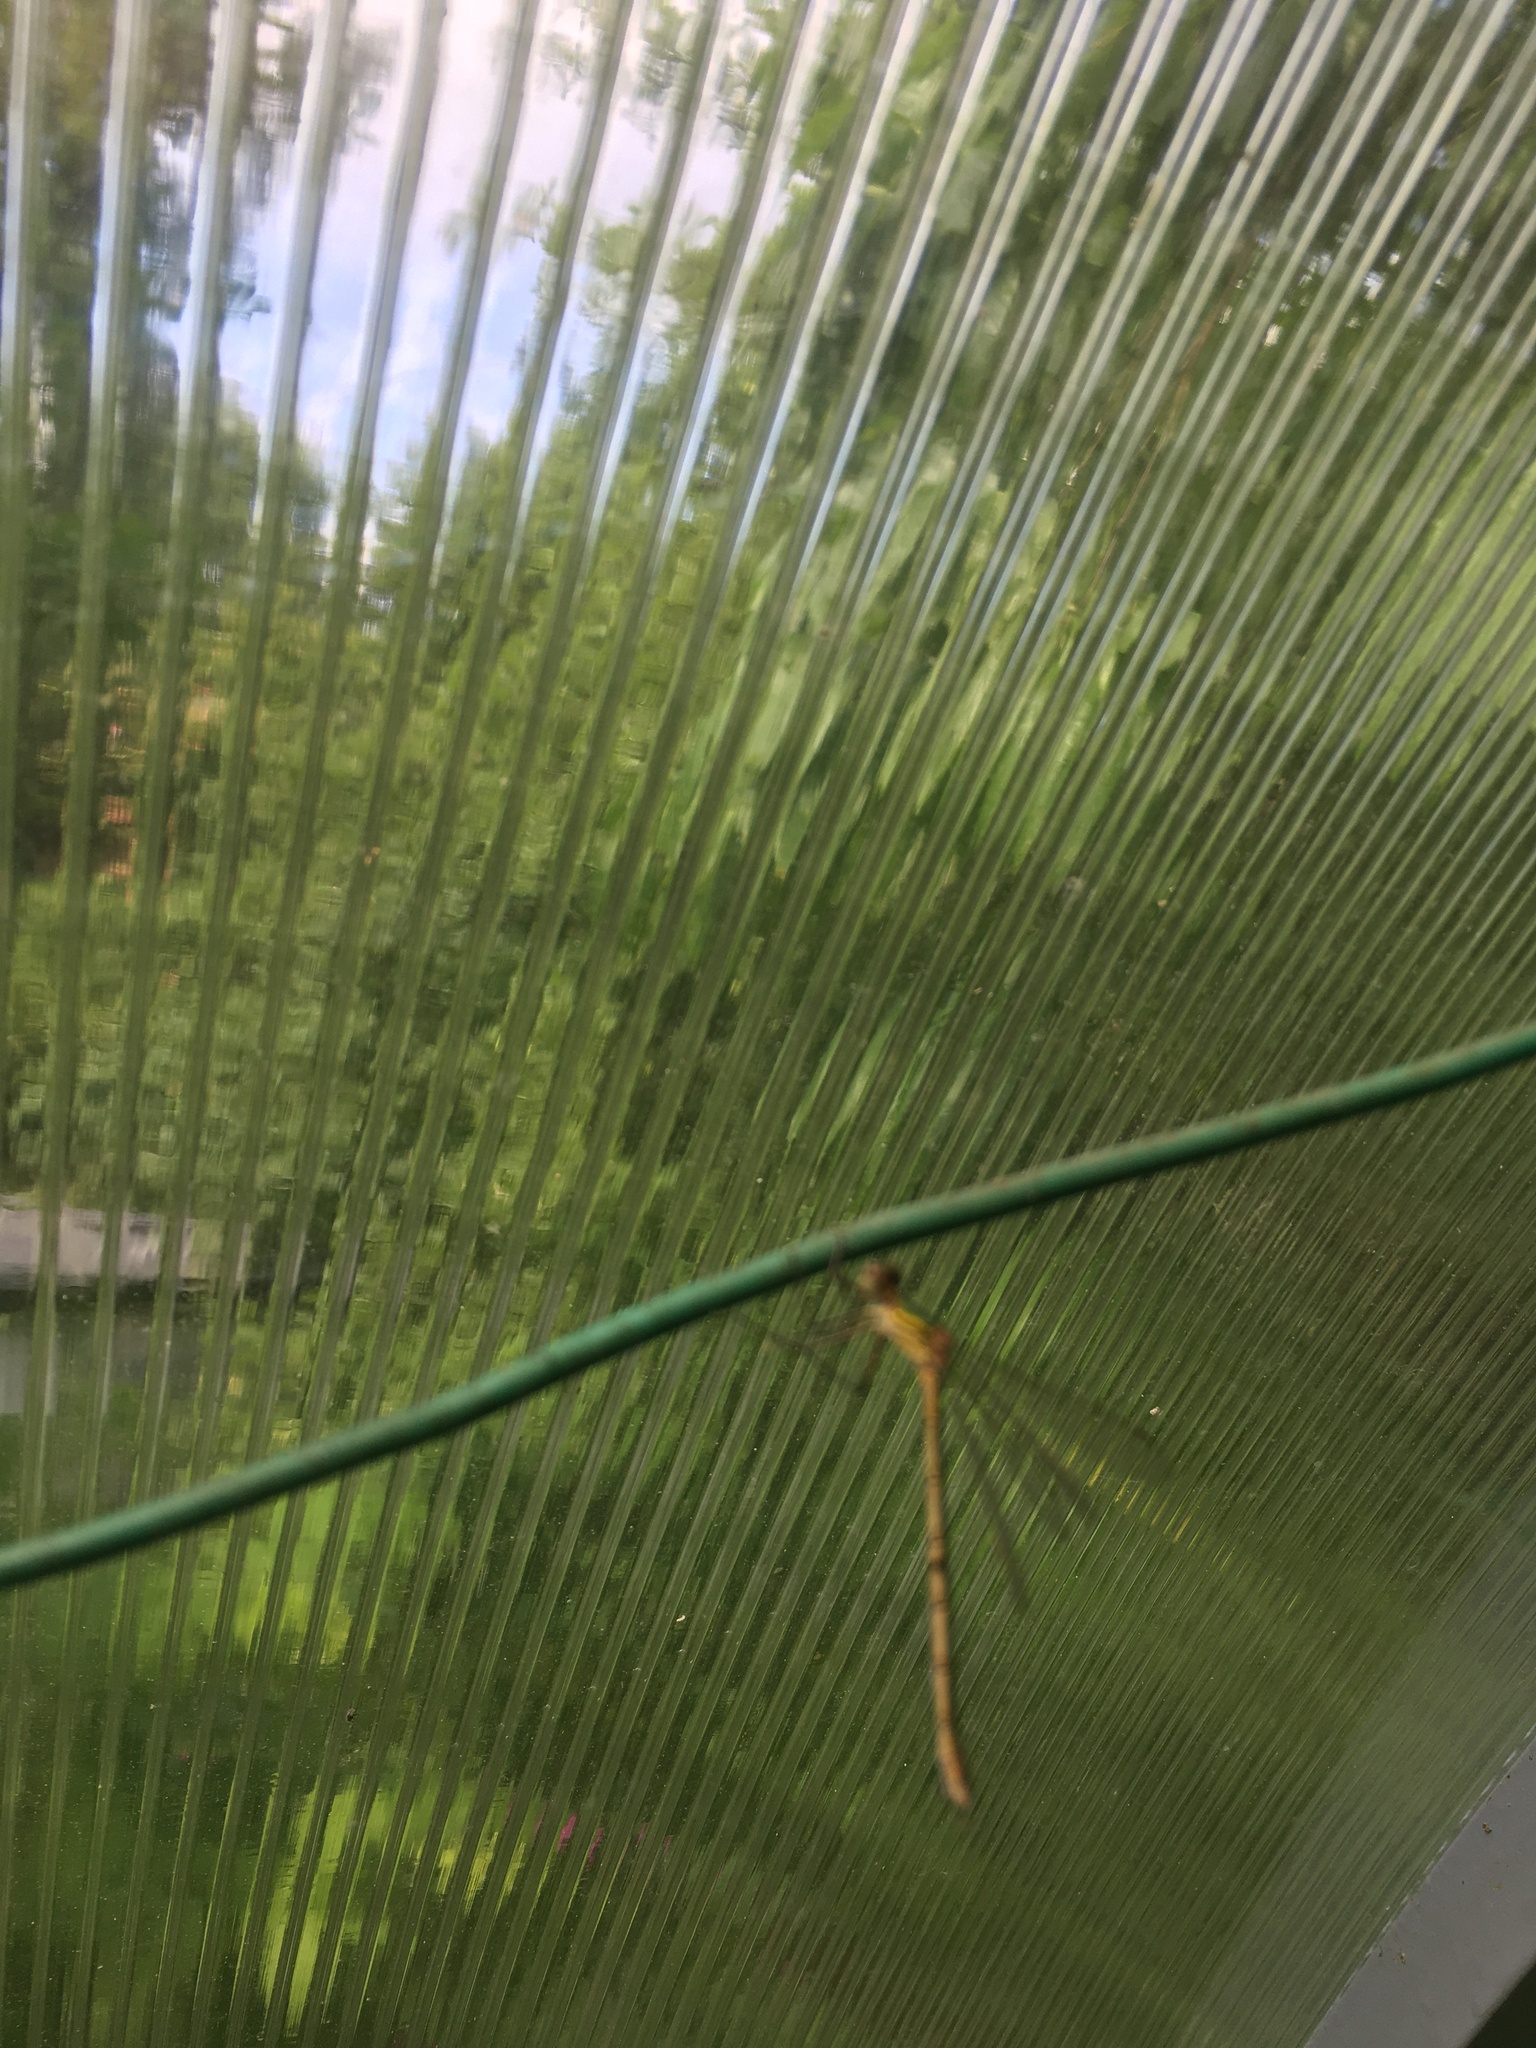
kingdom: Animalia
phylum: Arthropoda
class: Insecta
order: Odonata
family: Lestidae
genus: Lestes
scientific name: Lestes sponsa
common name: Common spreadwing
